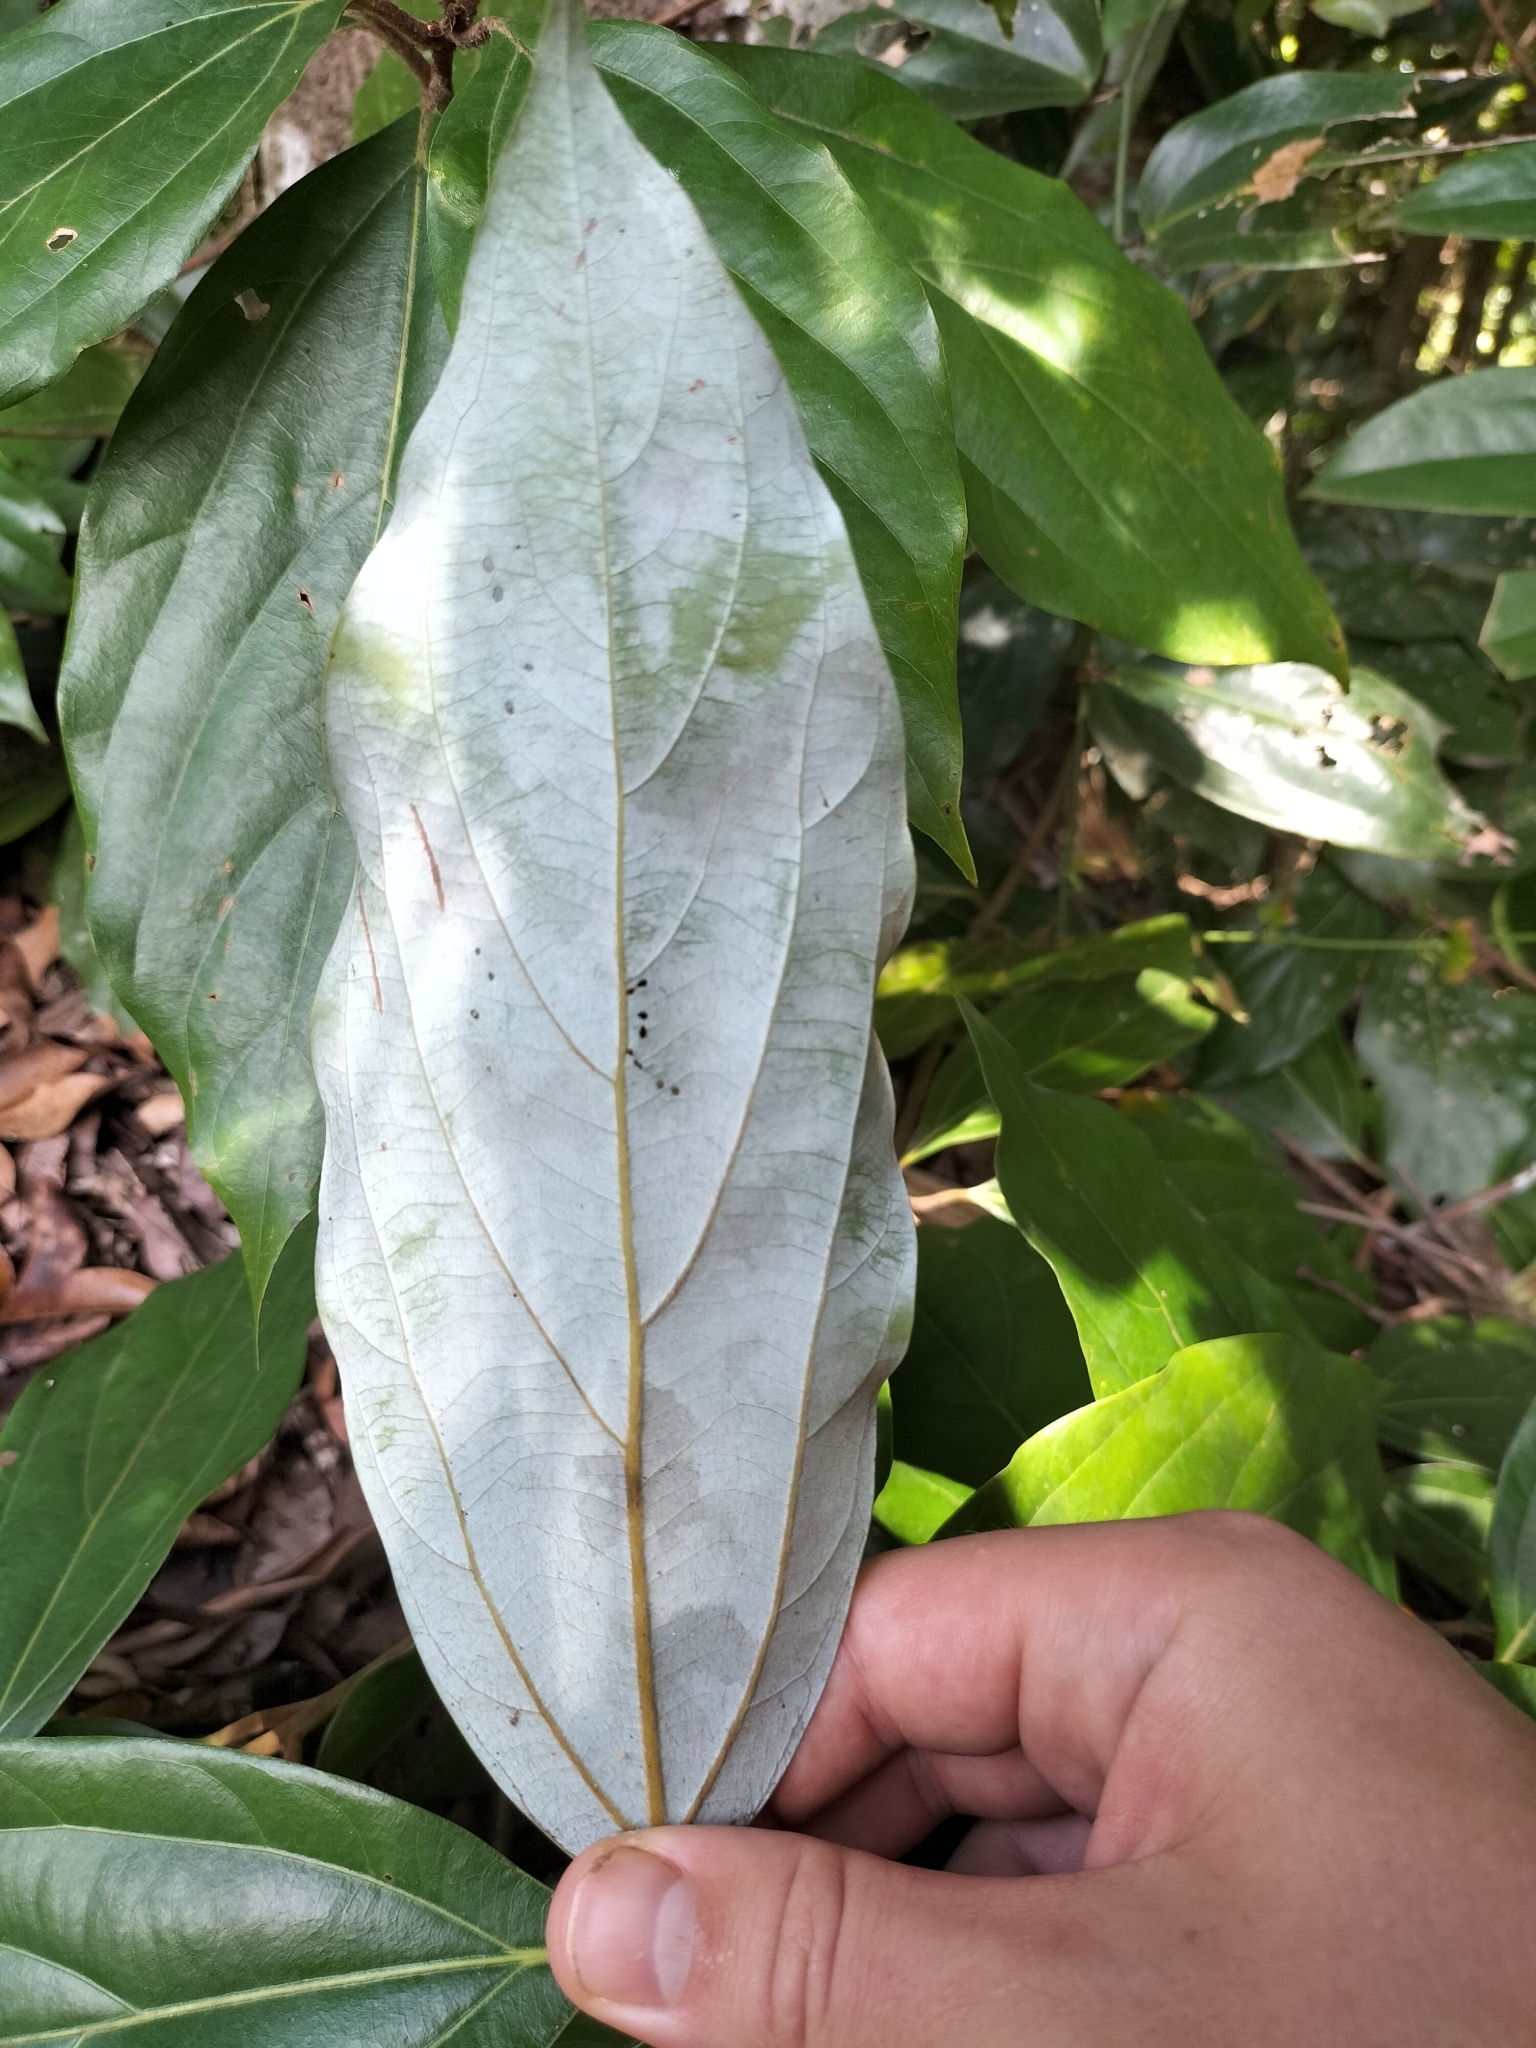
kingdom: Plantae
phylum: Tracheophyta
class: Magnoliopsida
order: Laurales
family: Lauraceae
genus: Neolitsea
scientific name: Neolitsea dealbata
